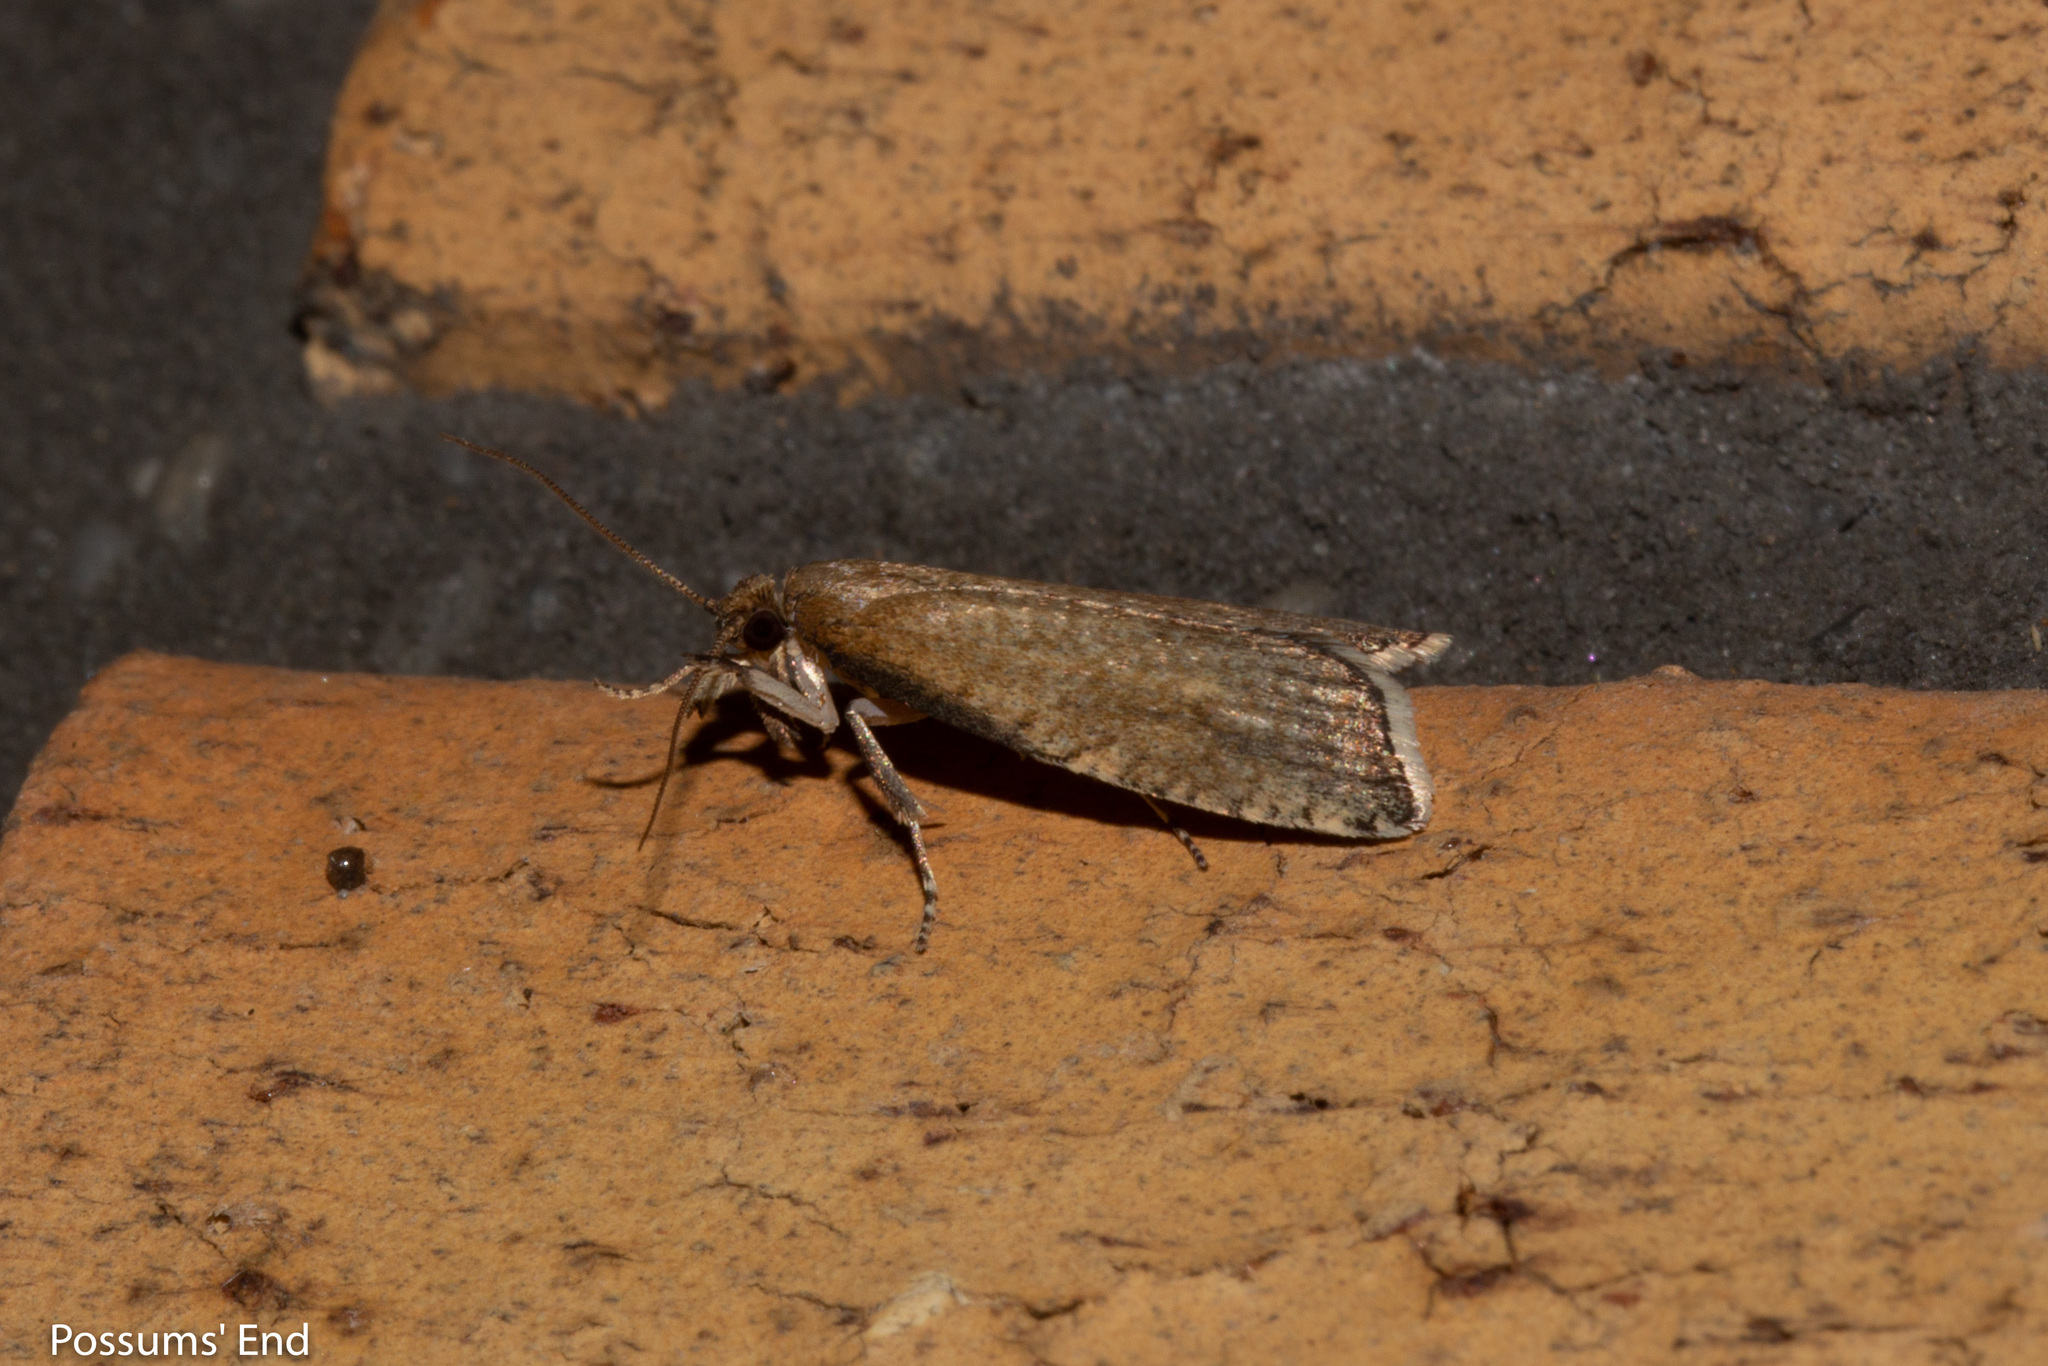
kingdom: Animalia
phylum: Arthropoda
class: Insecta
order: Lepidoptera
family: Tortricidae
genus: Catamacta
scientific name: Catamacta gavisana
